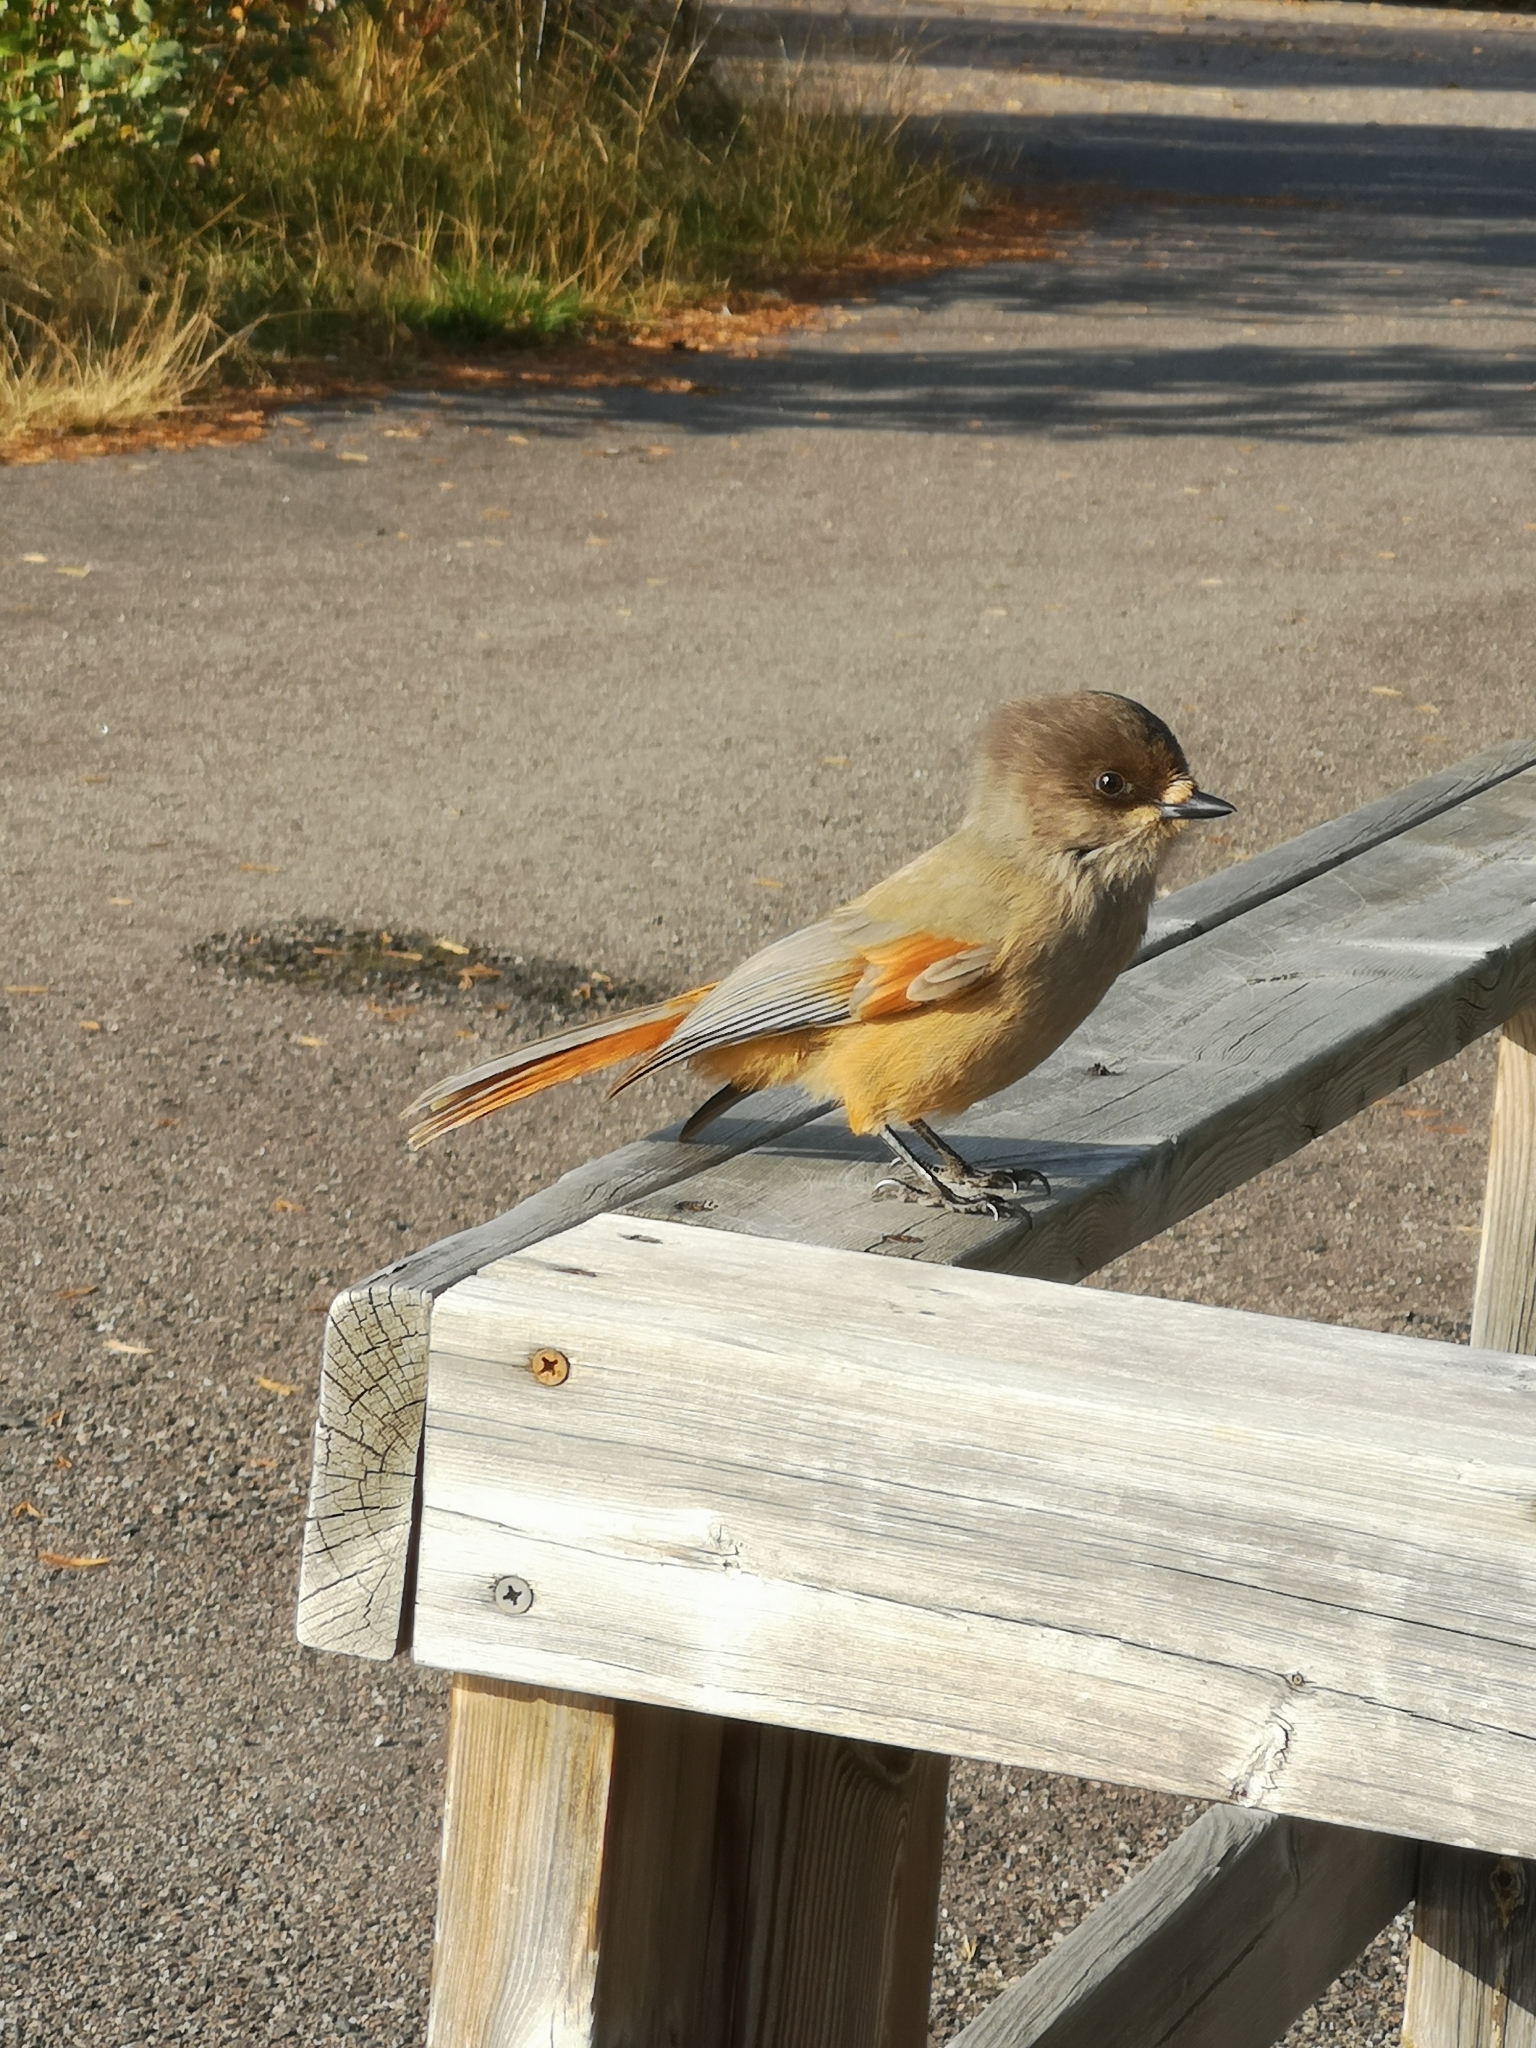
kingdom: Animalia
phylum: Chordata
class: Aves
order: Passeriformes
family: Corvidae
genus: Perisoreus
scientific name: Perisoreus infaustus
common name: Siberian jay
